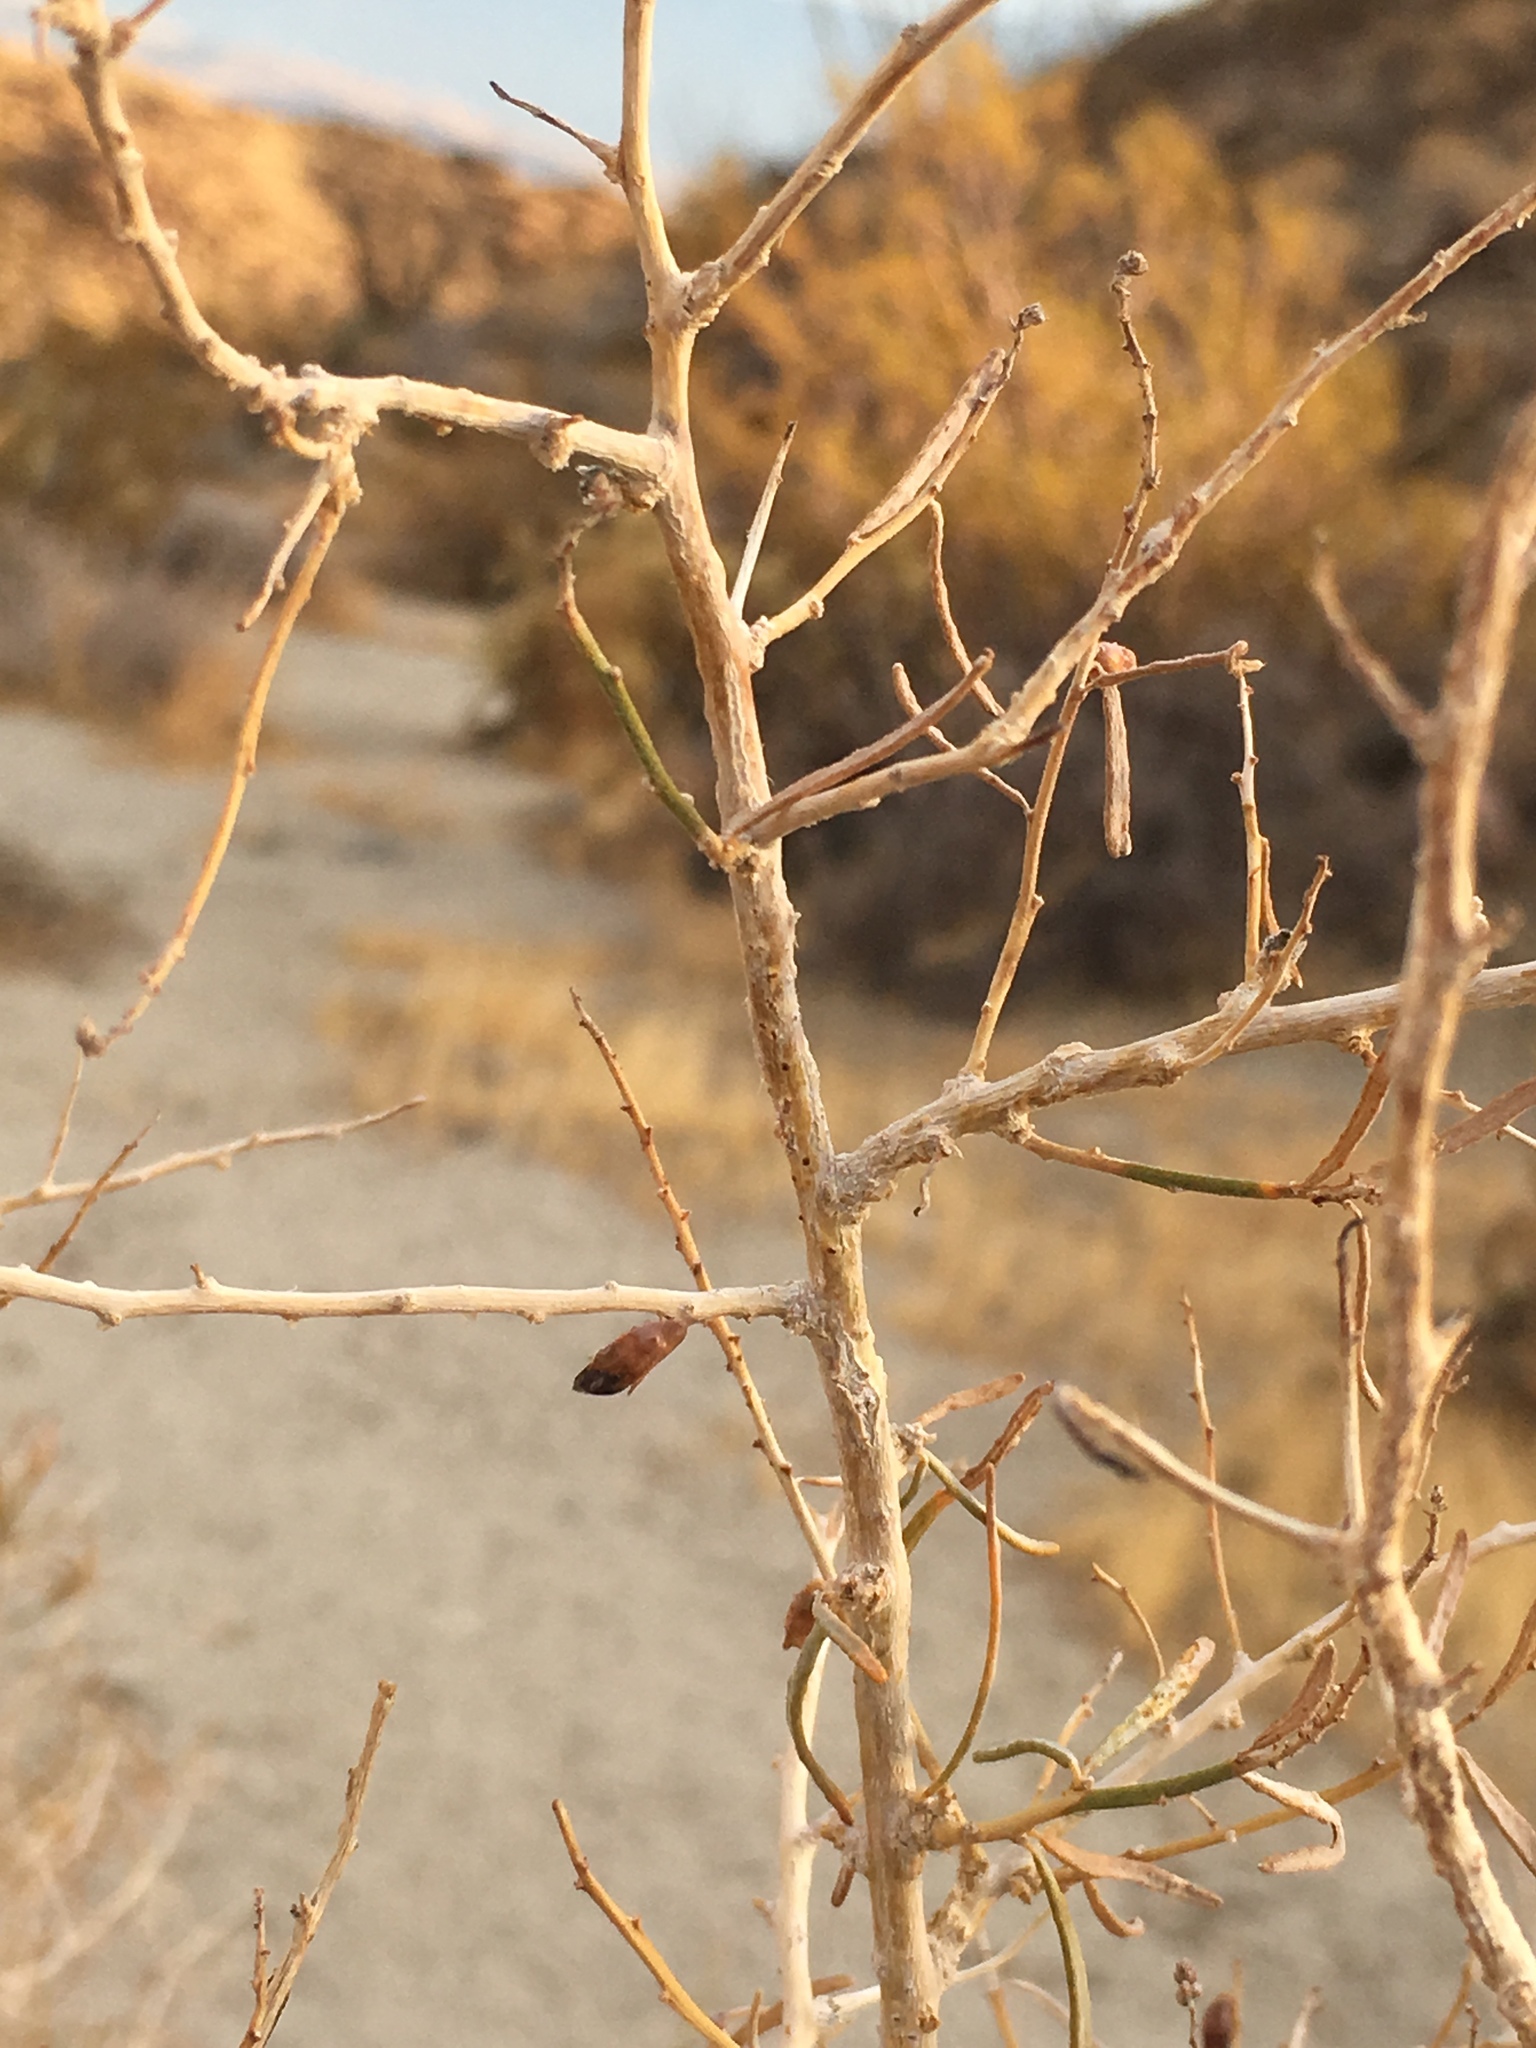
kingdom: Plantae
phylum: Tracheophyta
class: Magnoliopsida
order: Fabales
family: Fabaceae
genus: Psorothamnus
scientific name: Psorothamnus schottii
